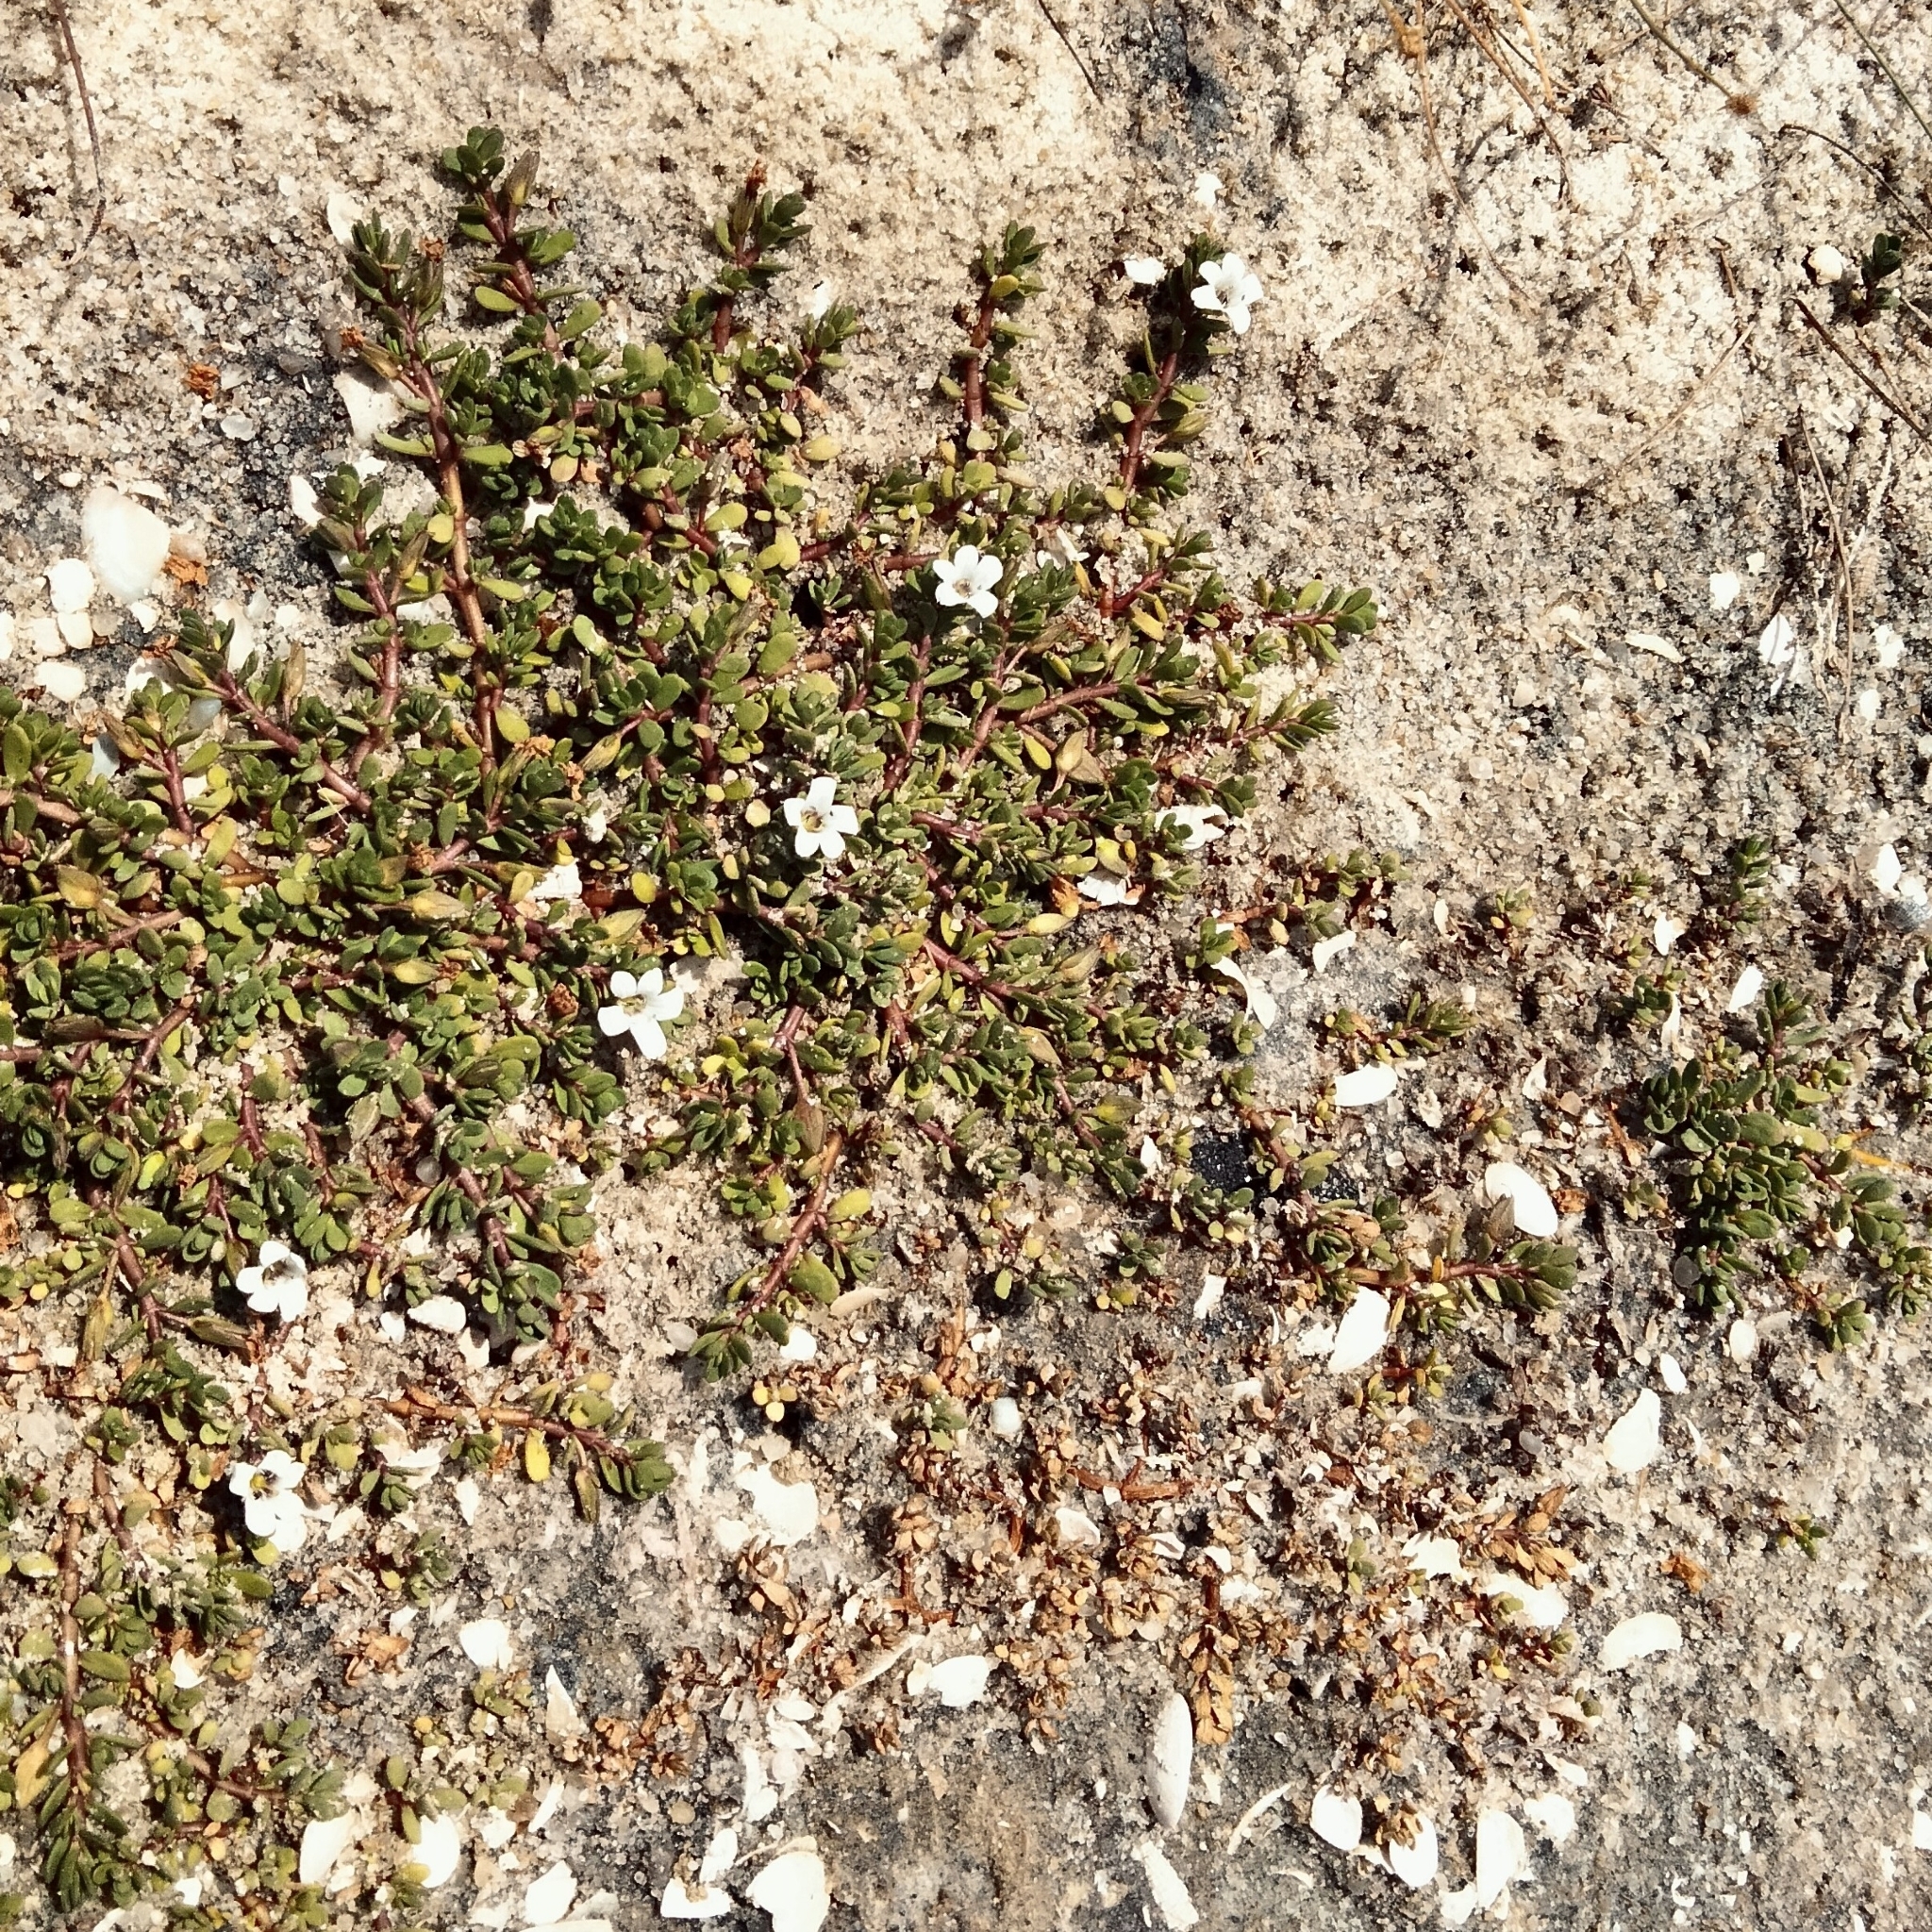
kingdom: Plantae
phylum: Tracheophyta
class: Magnoliopsida
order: Lamiales
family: Plantaginaceae
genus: Bacopa
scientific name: Bacopa monnieri
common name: Indian-pennywort
